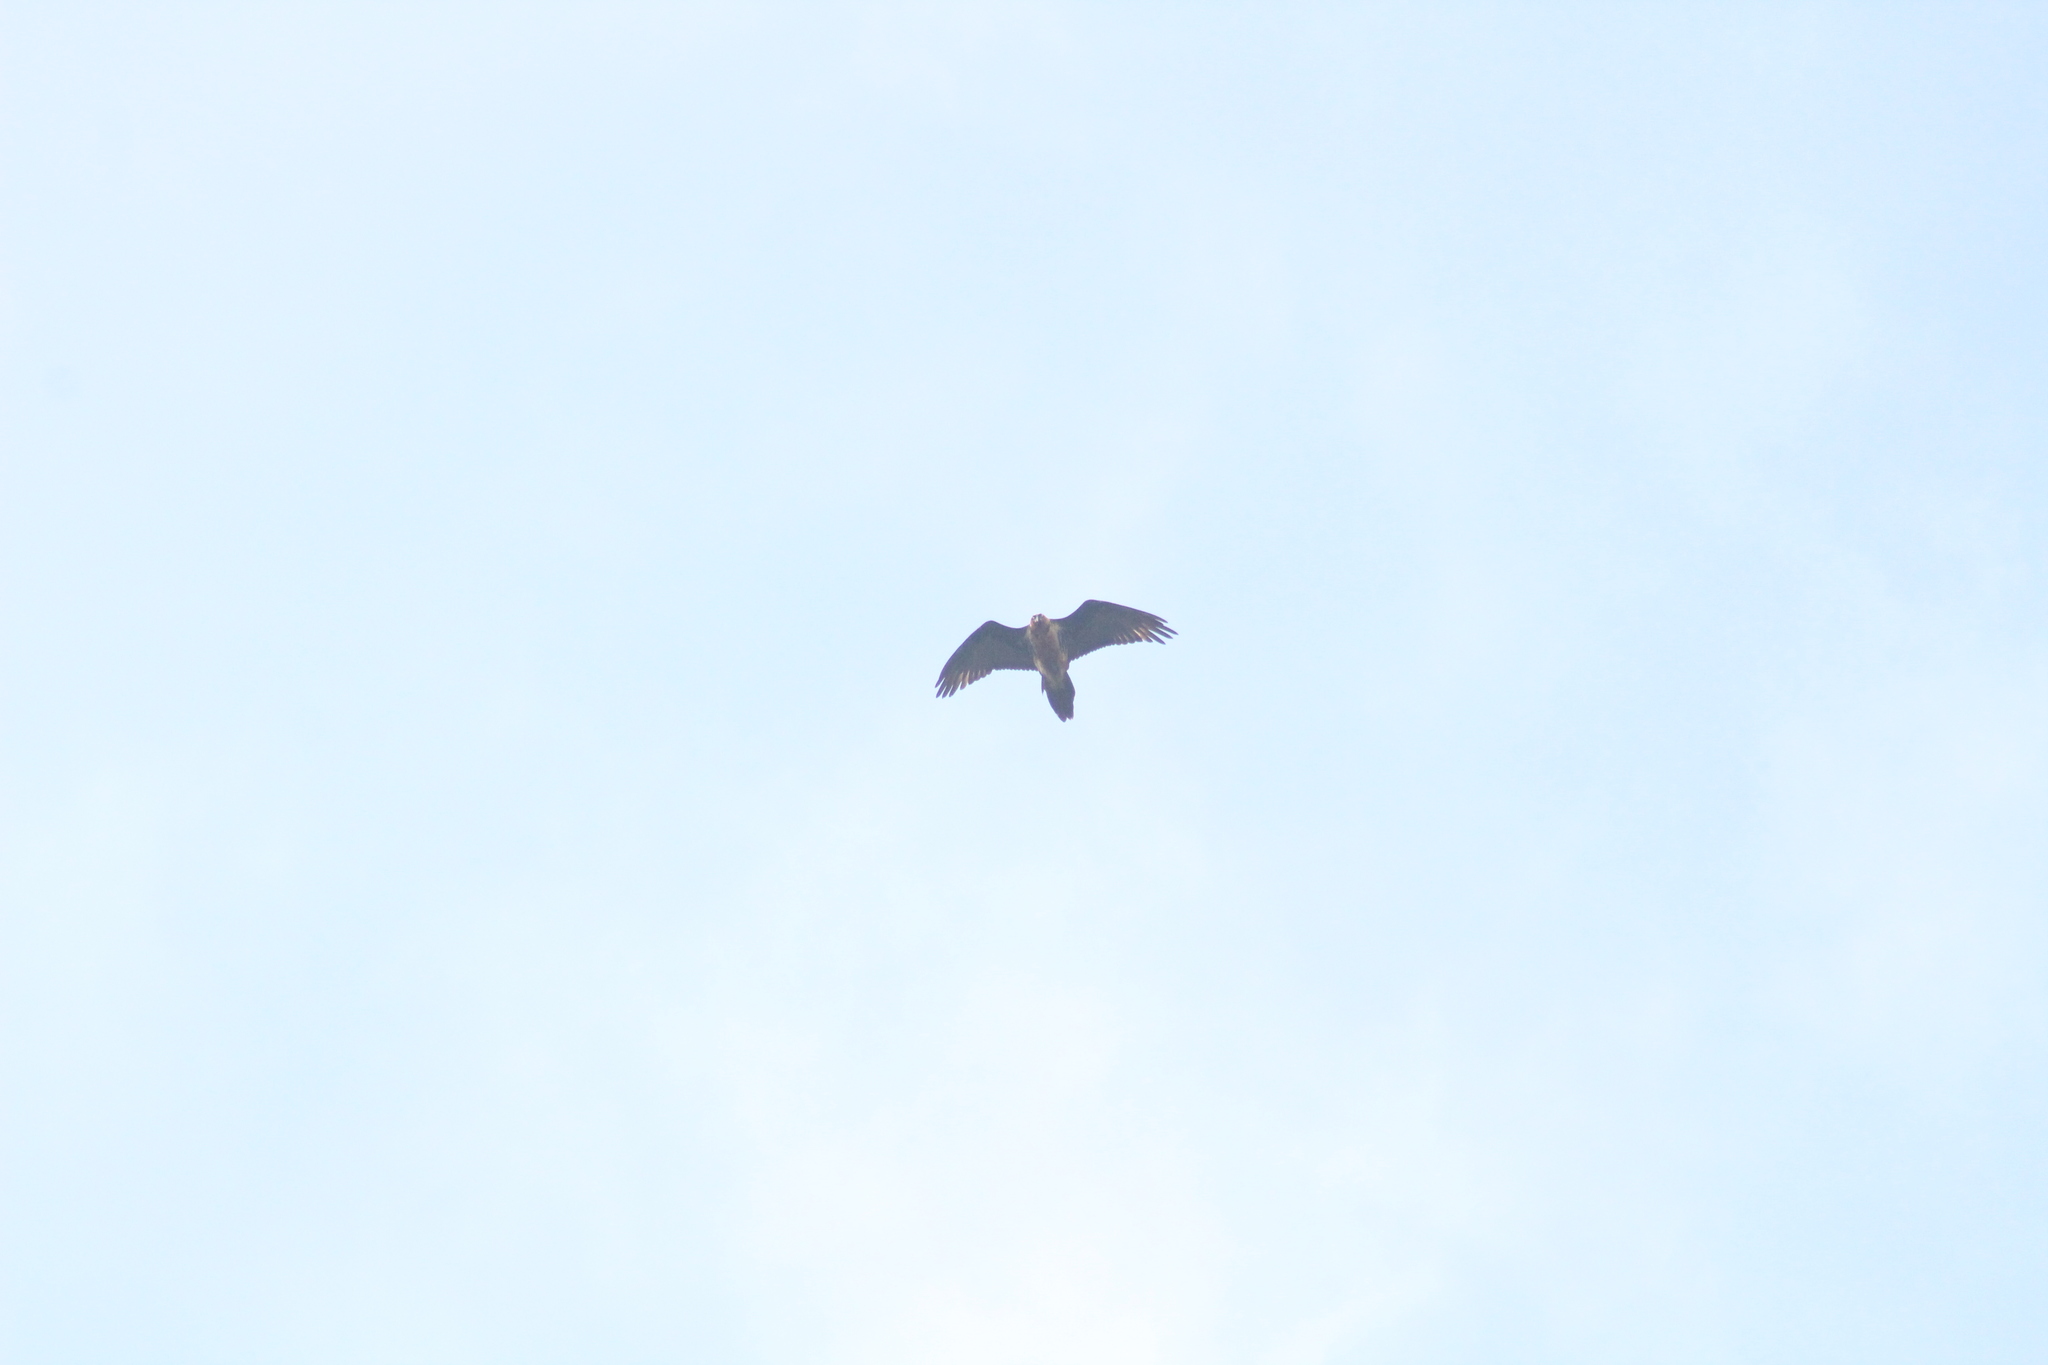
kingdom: Animalia
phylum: Chordata
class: Aves
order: Accipitriformes
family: Accipitridae
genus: Gypaetus
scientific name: Gypaetus barbatus
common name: Bearded vulture
